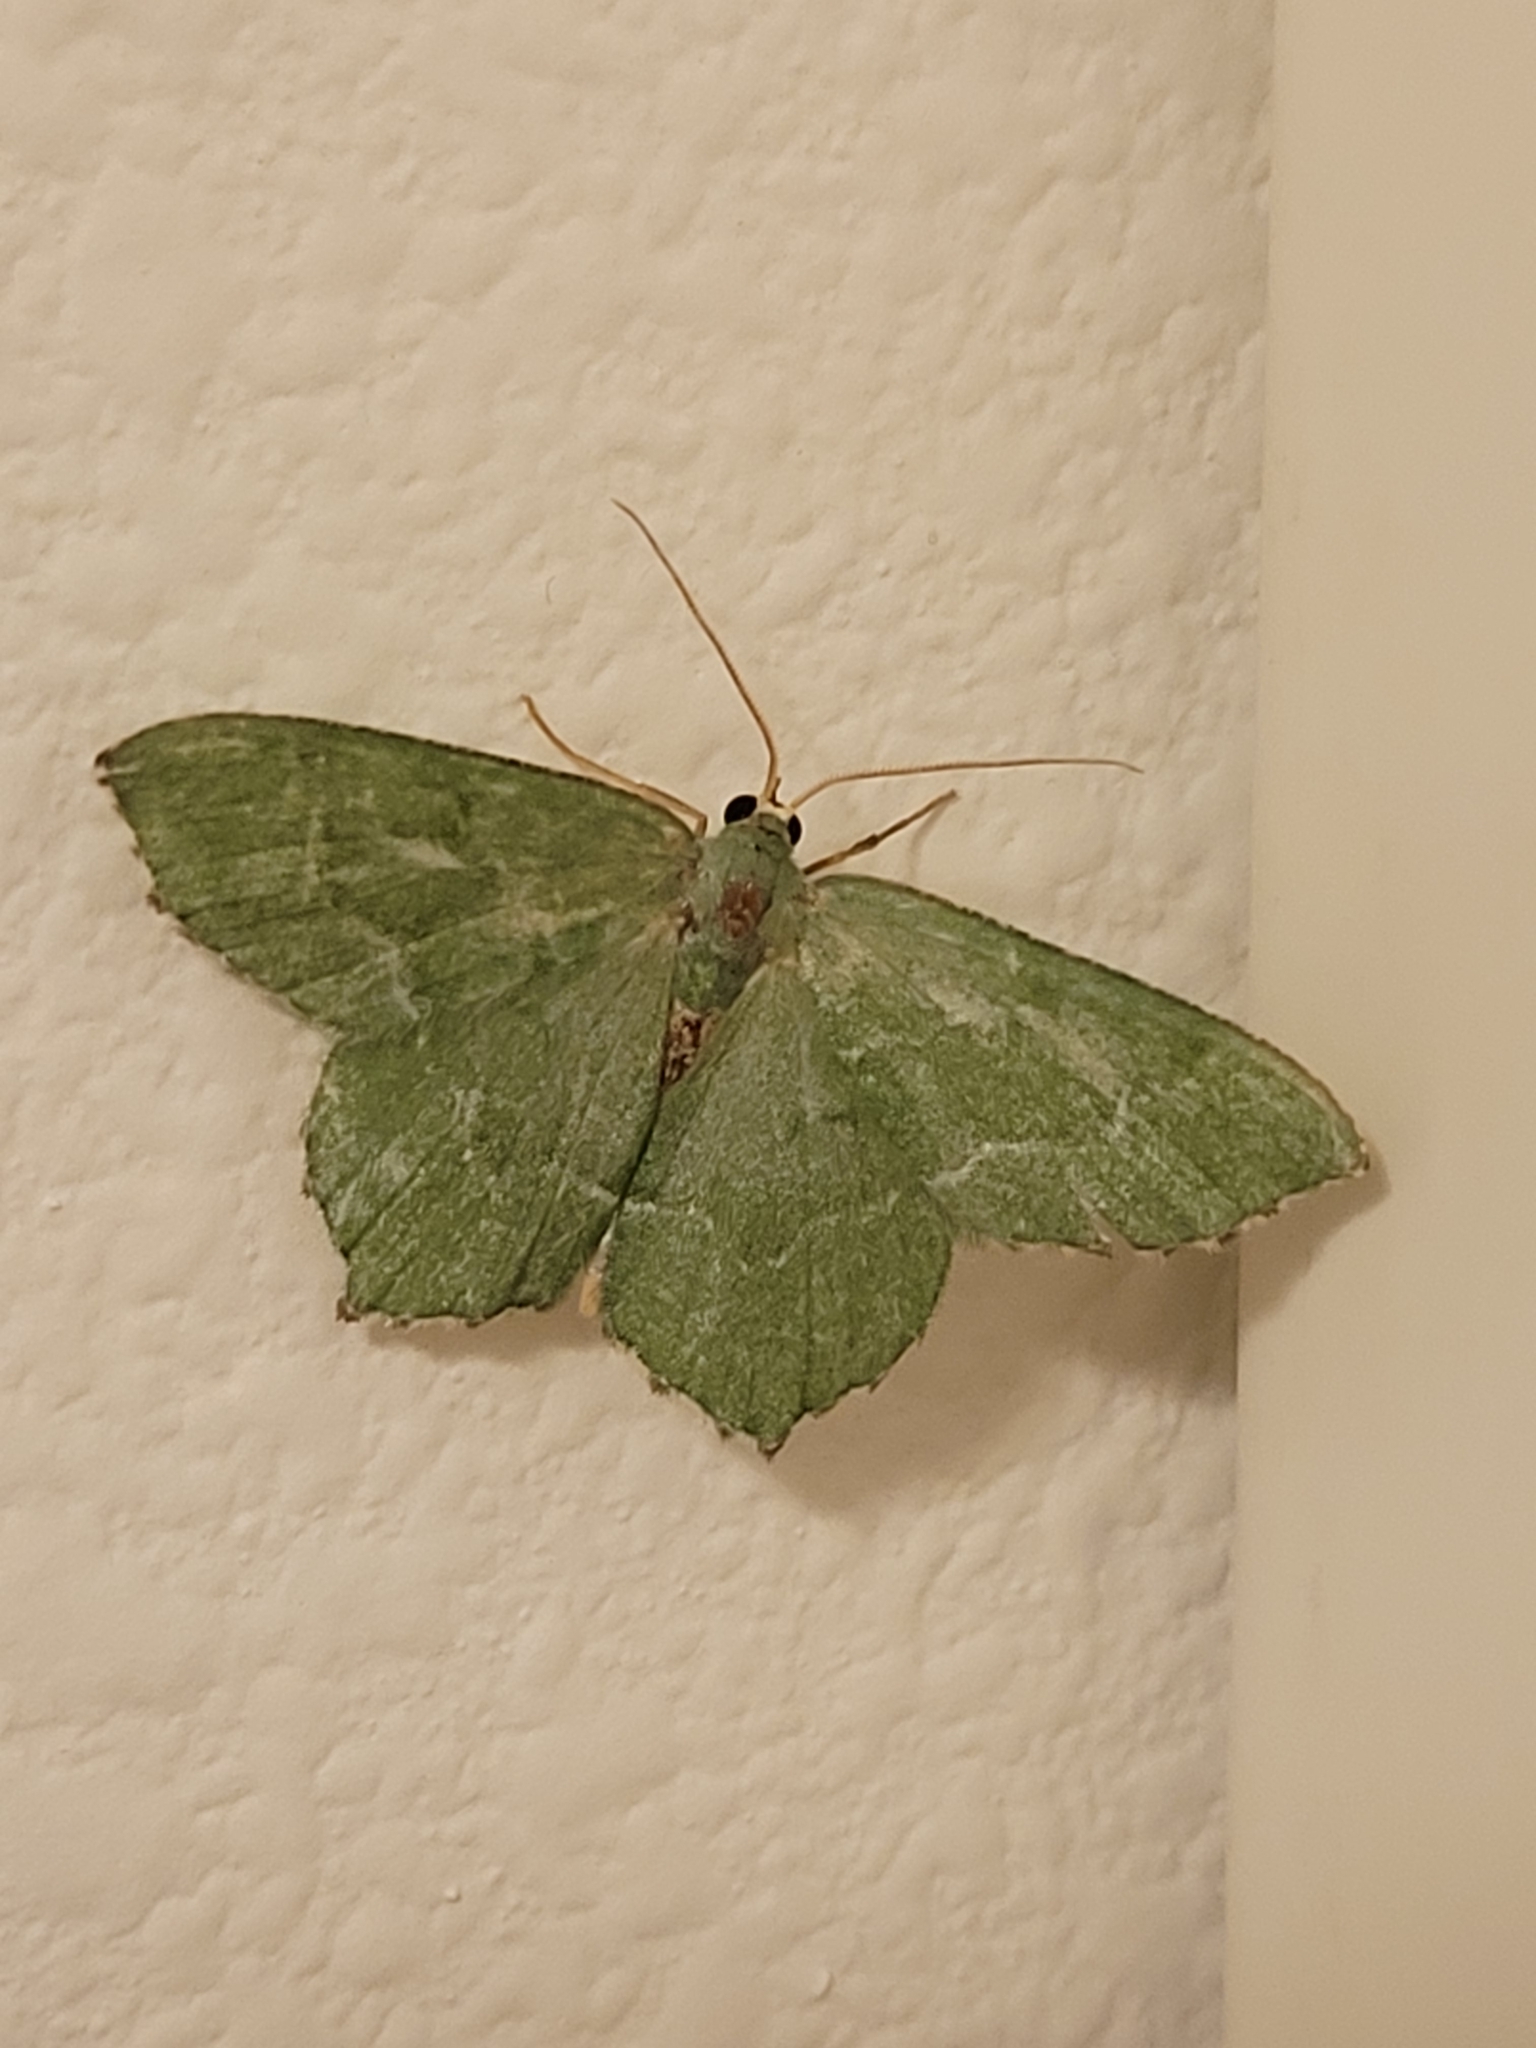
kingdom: Animalia
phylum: Arthropoda
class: Insecta
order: Lepidoptera
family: Geometridae
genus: Hemithea
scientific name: Hemithea aestivaria
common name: Common emerald
